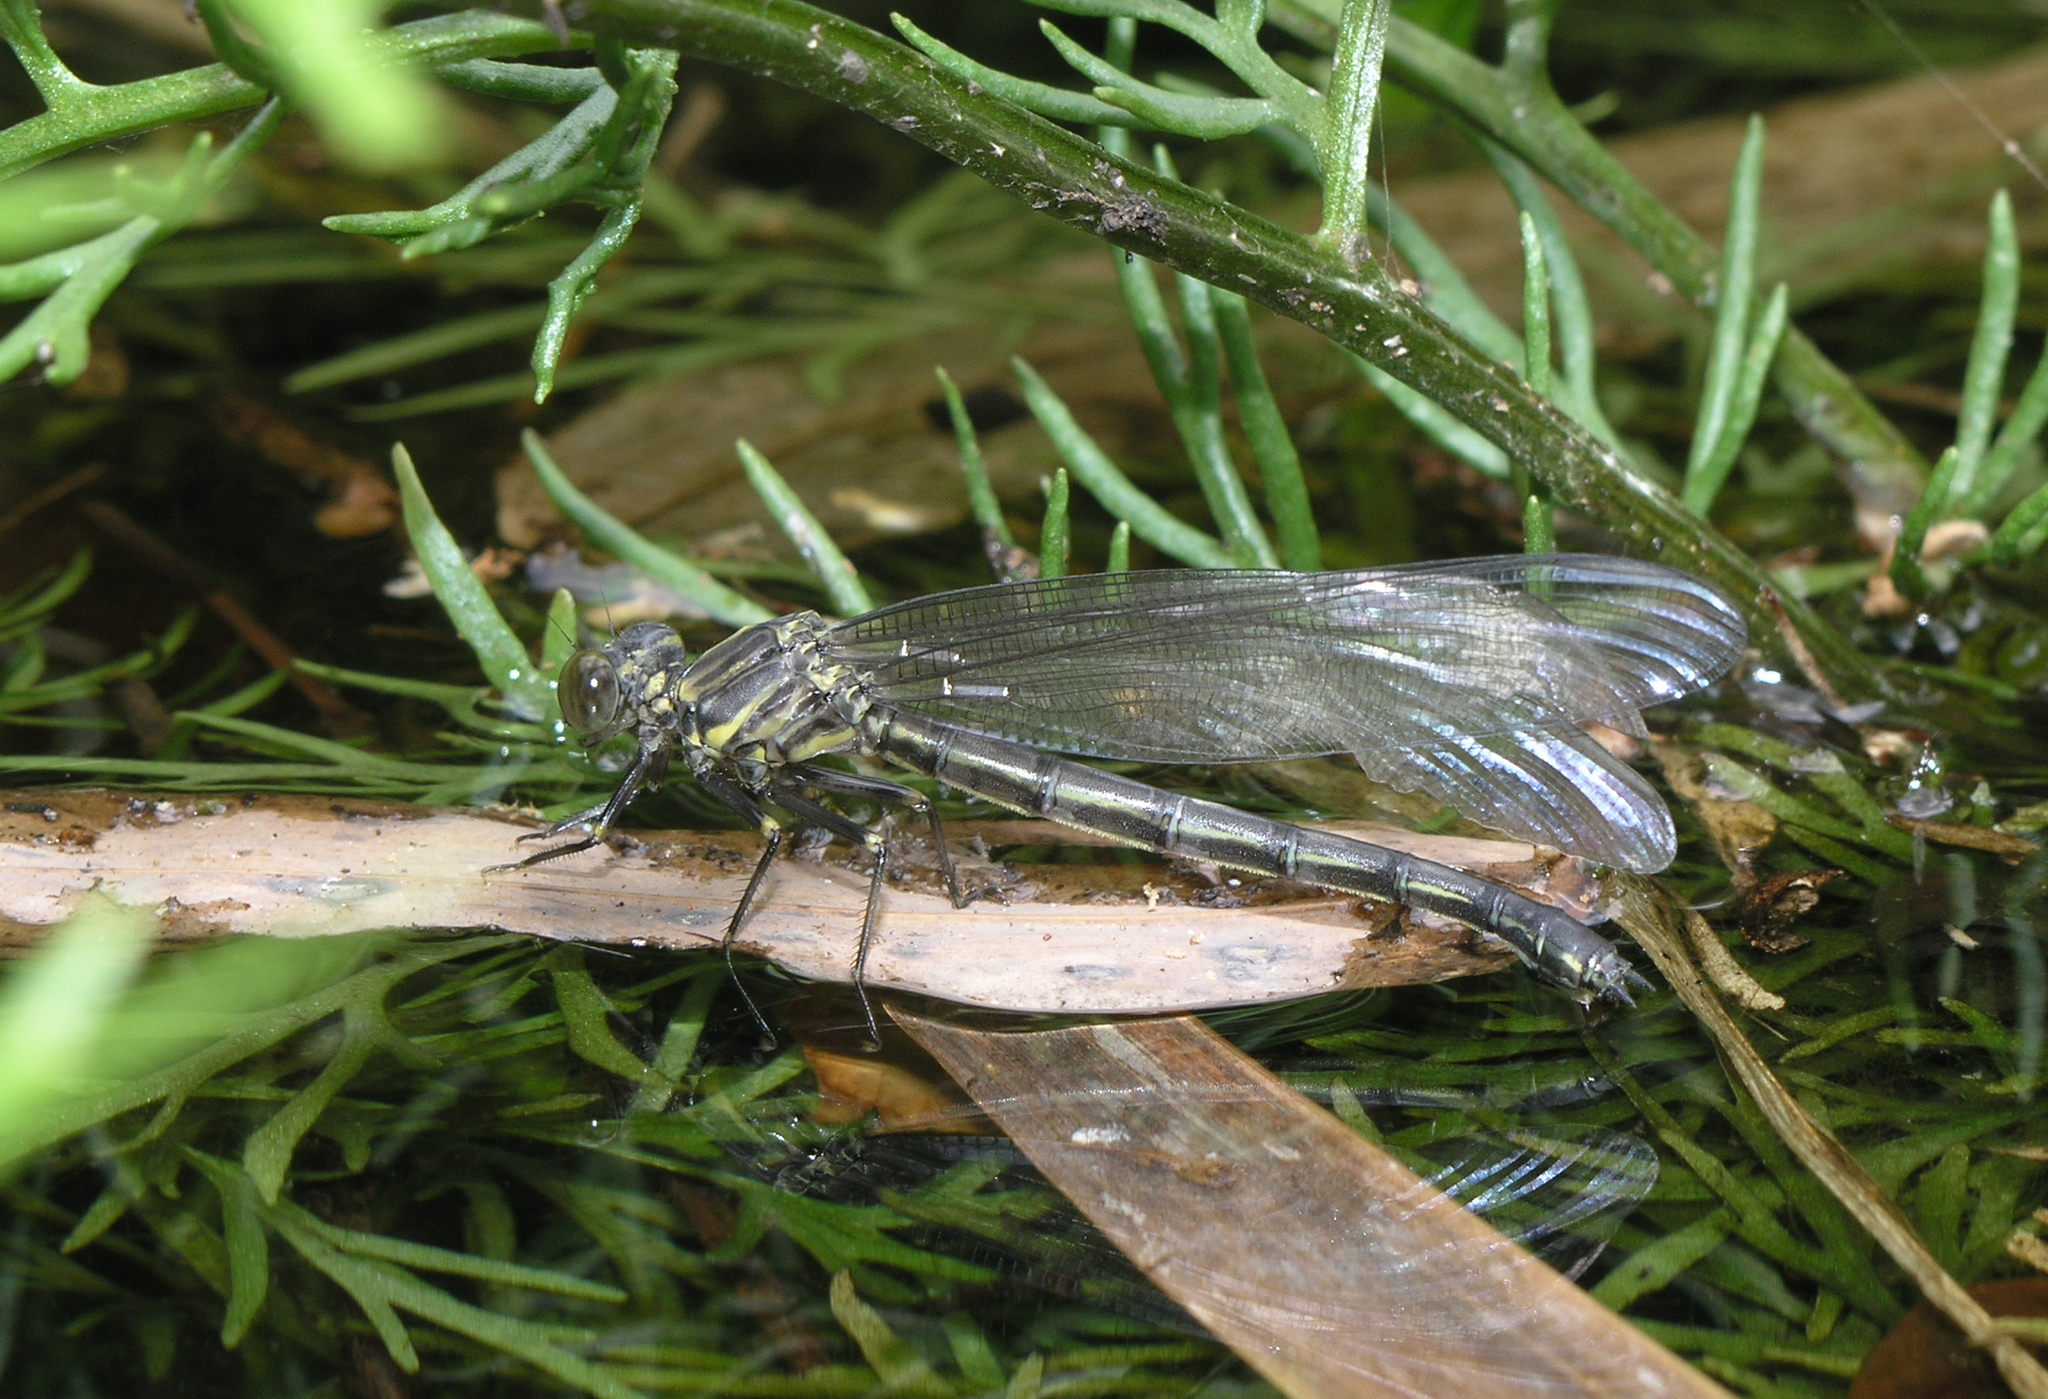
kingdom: Animalia
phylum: Arthropoda
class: Insecta
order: Odonata
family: Euphaeidae
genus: Dysphaea
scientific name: Dysphaea gloriosa
